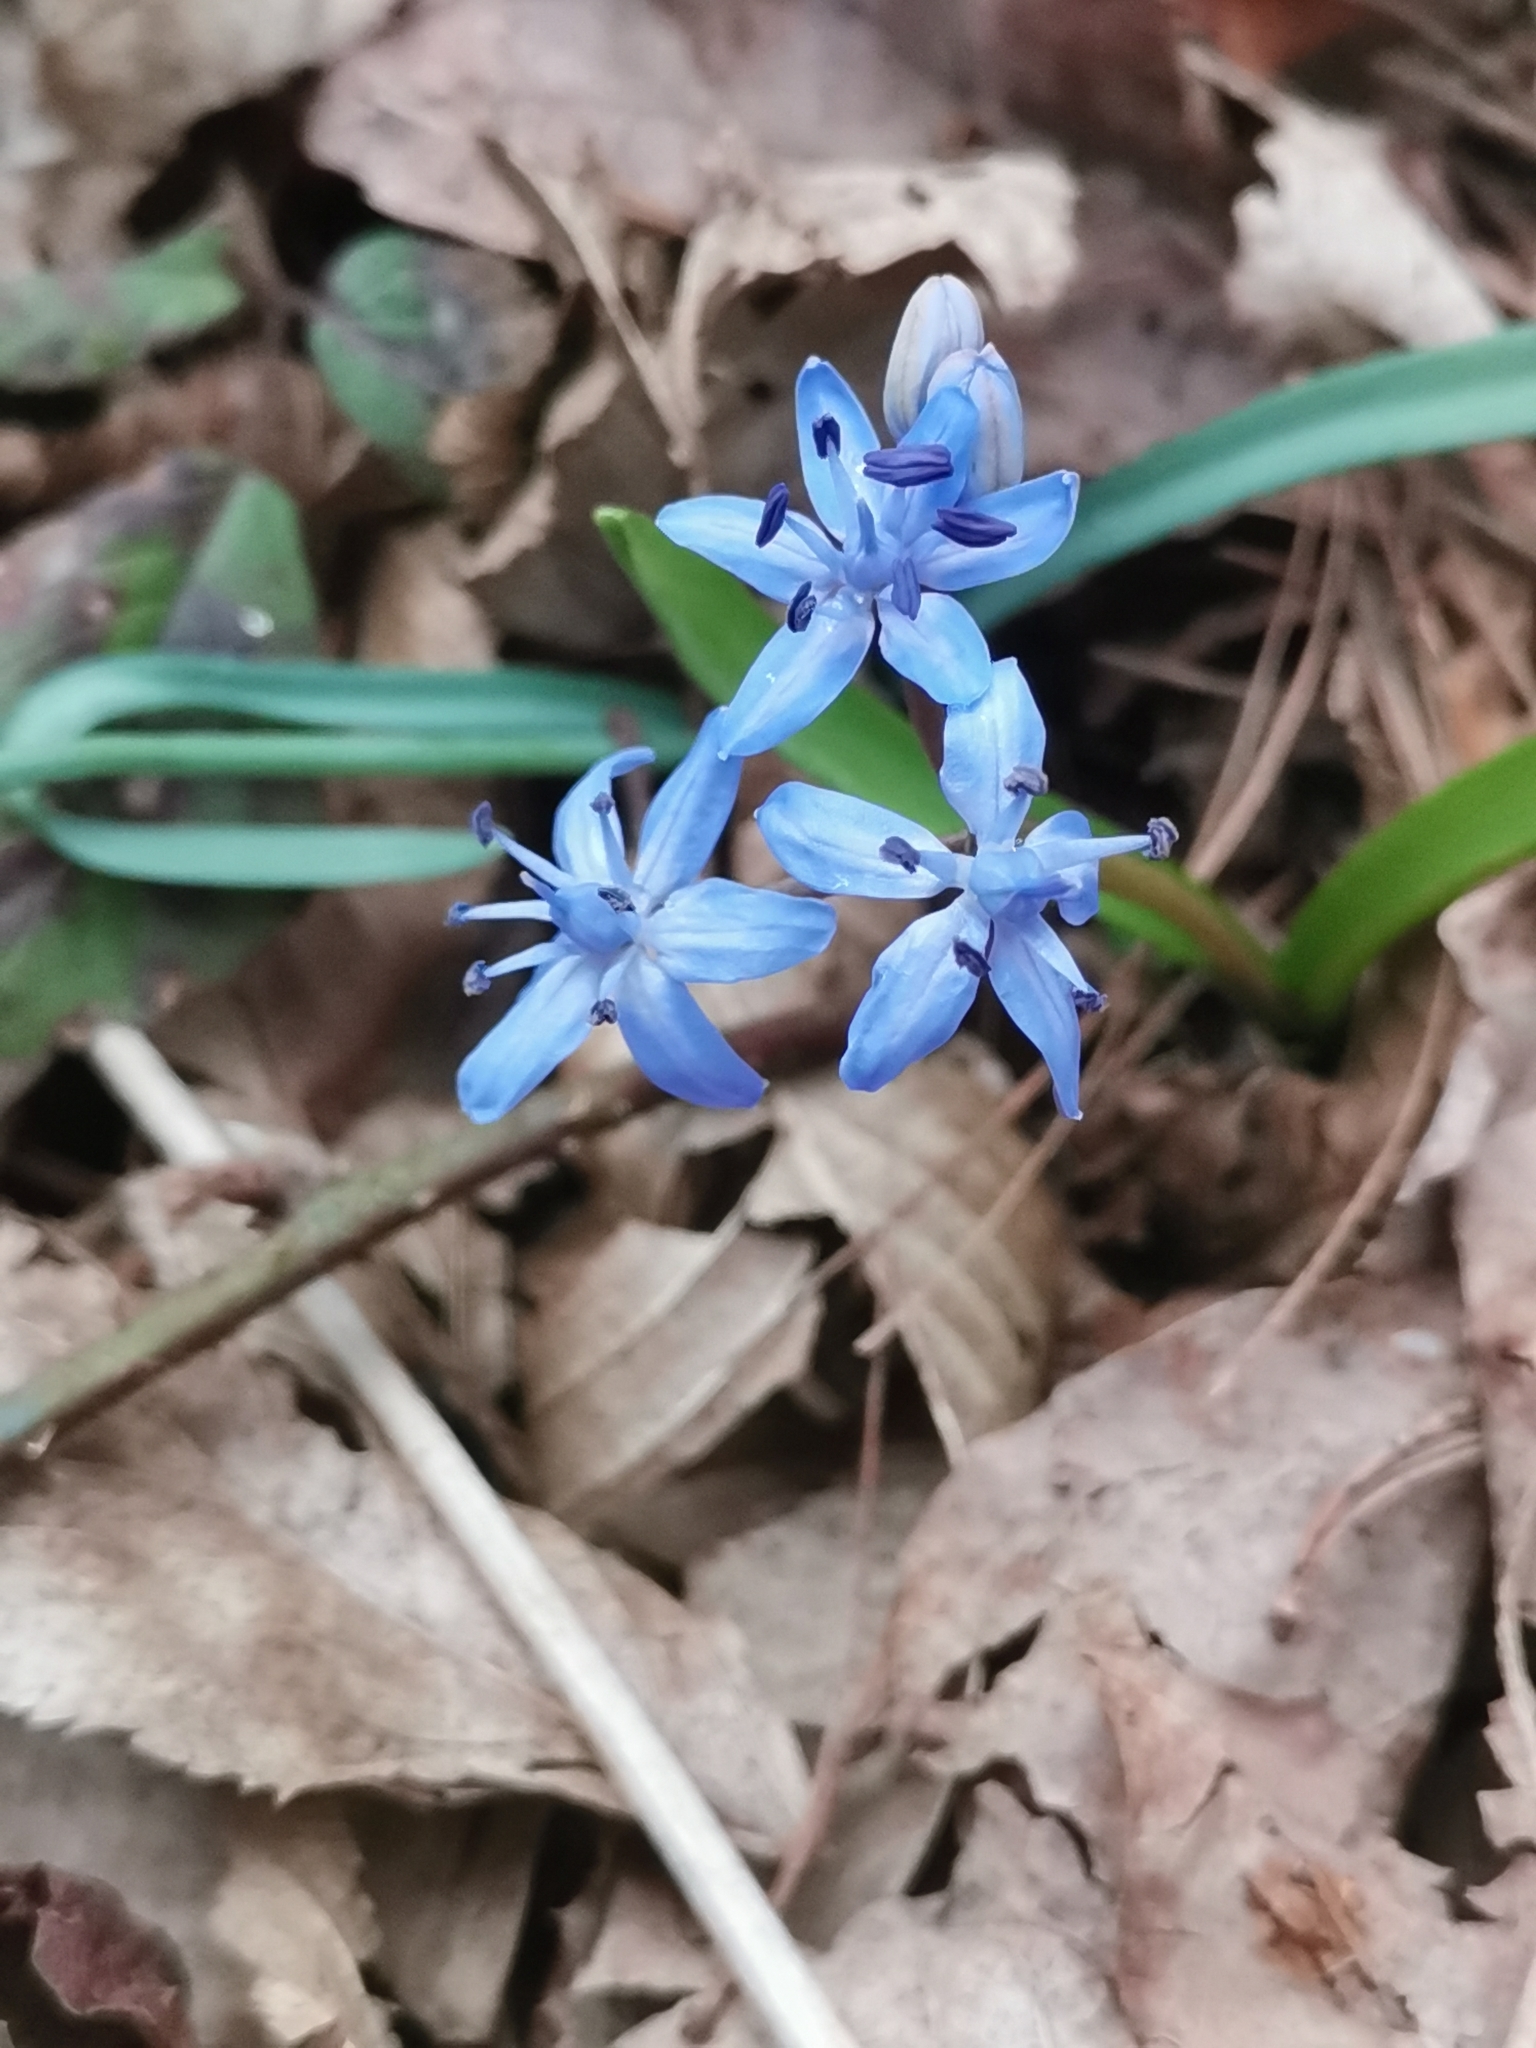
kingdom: Plantae
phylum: Tracheophyta
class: Liliopsida
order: Asparagales
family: Asparagaceae
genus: Scilla
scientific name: Scilla bifolia
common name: Alpine squill
